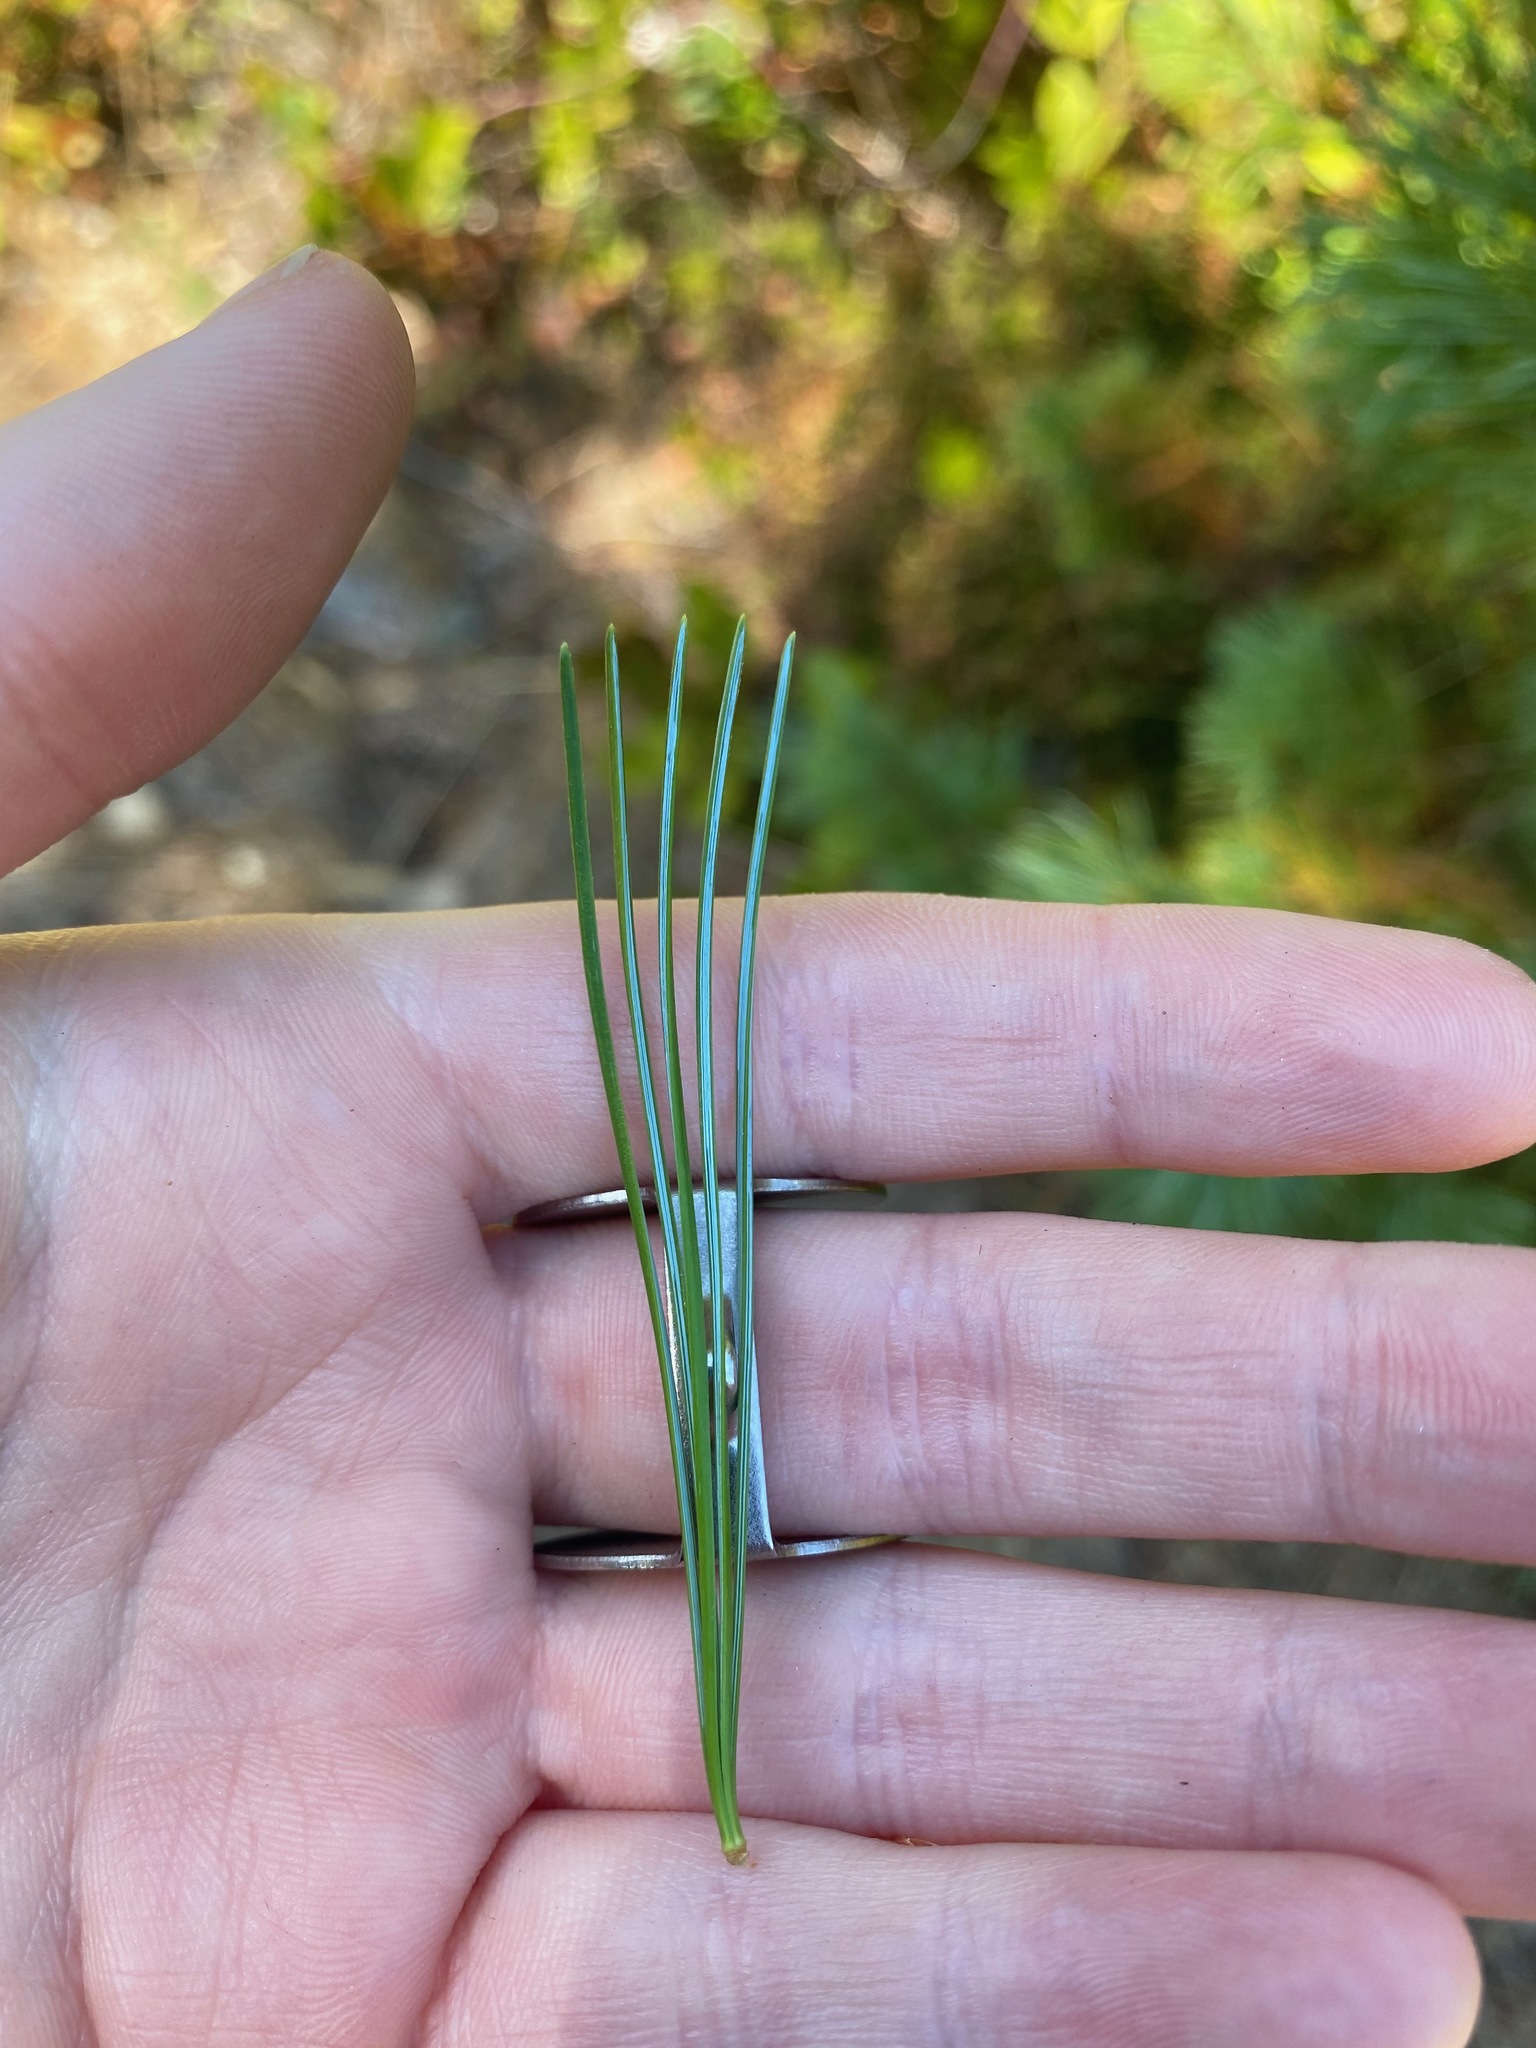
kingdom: Plantae
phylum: Tracheophyta
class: Pinopsida
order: Pinales
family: Pinaceae
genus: Pinus
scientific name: Pinus monticola
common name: Western white pine
